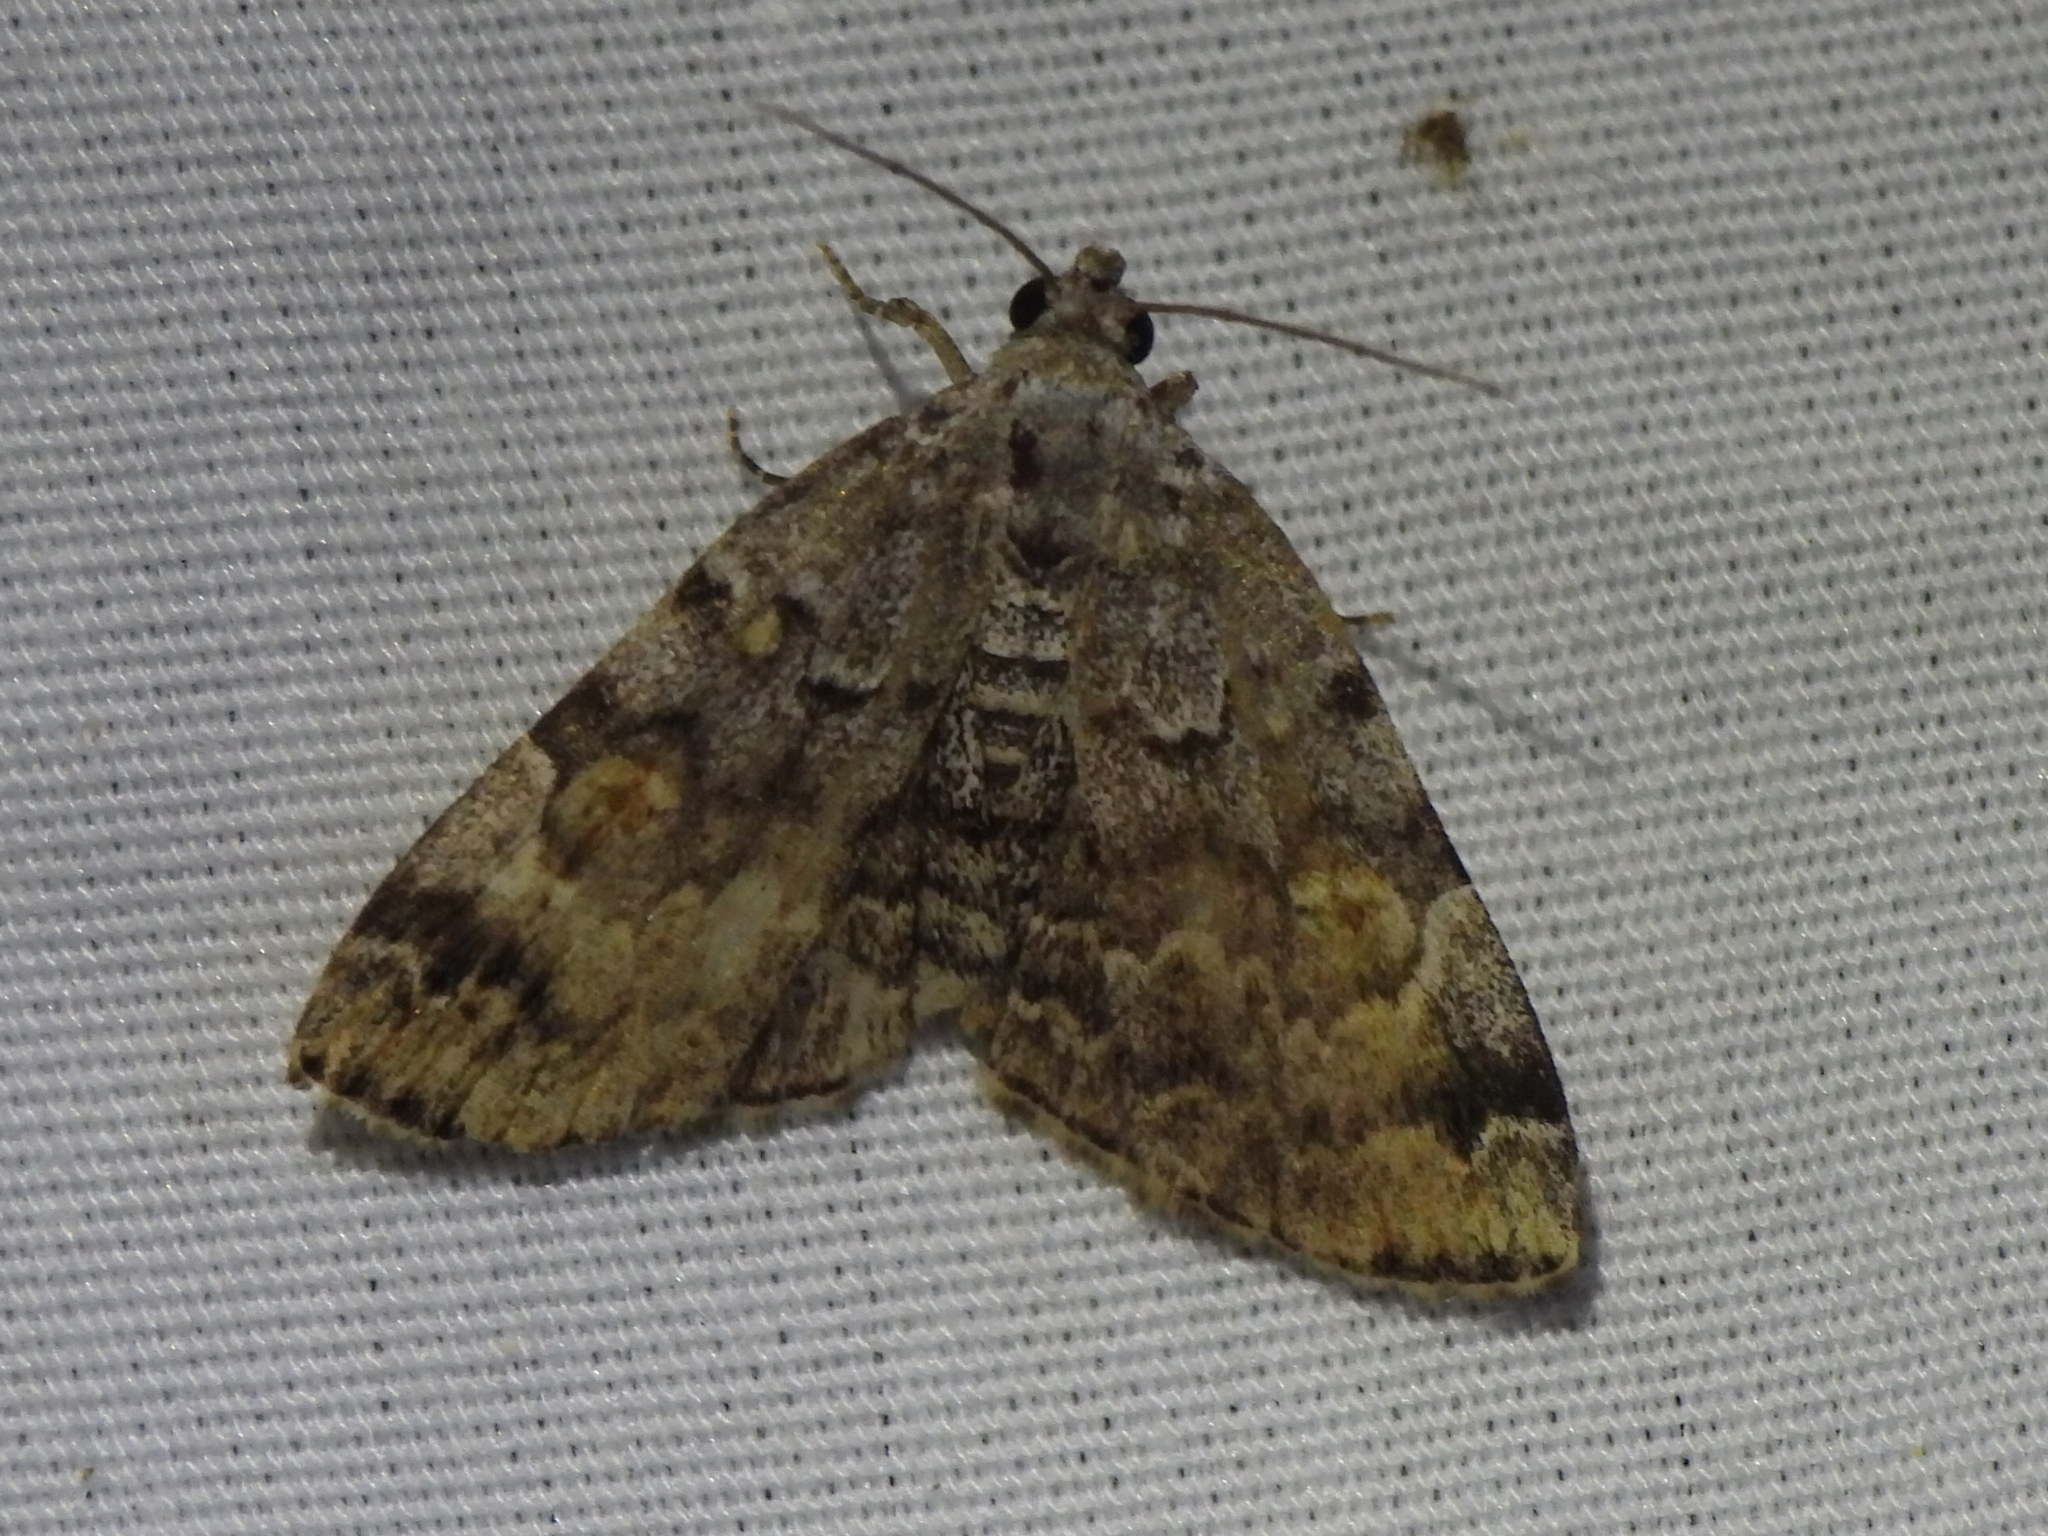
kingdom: Animalia
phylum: Arthropoda
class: Insecta
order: Lepidoptera
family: Erebidae
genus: Idia
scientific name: Idia americalis
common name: American idia moth
